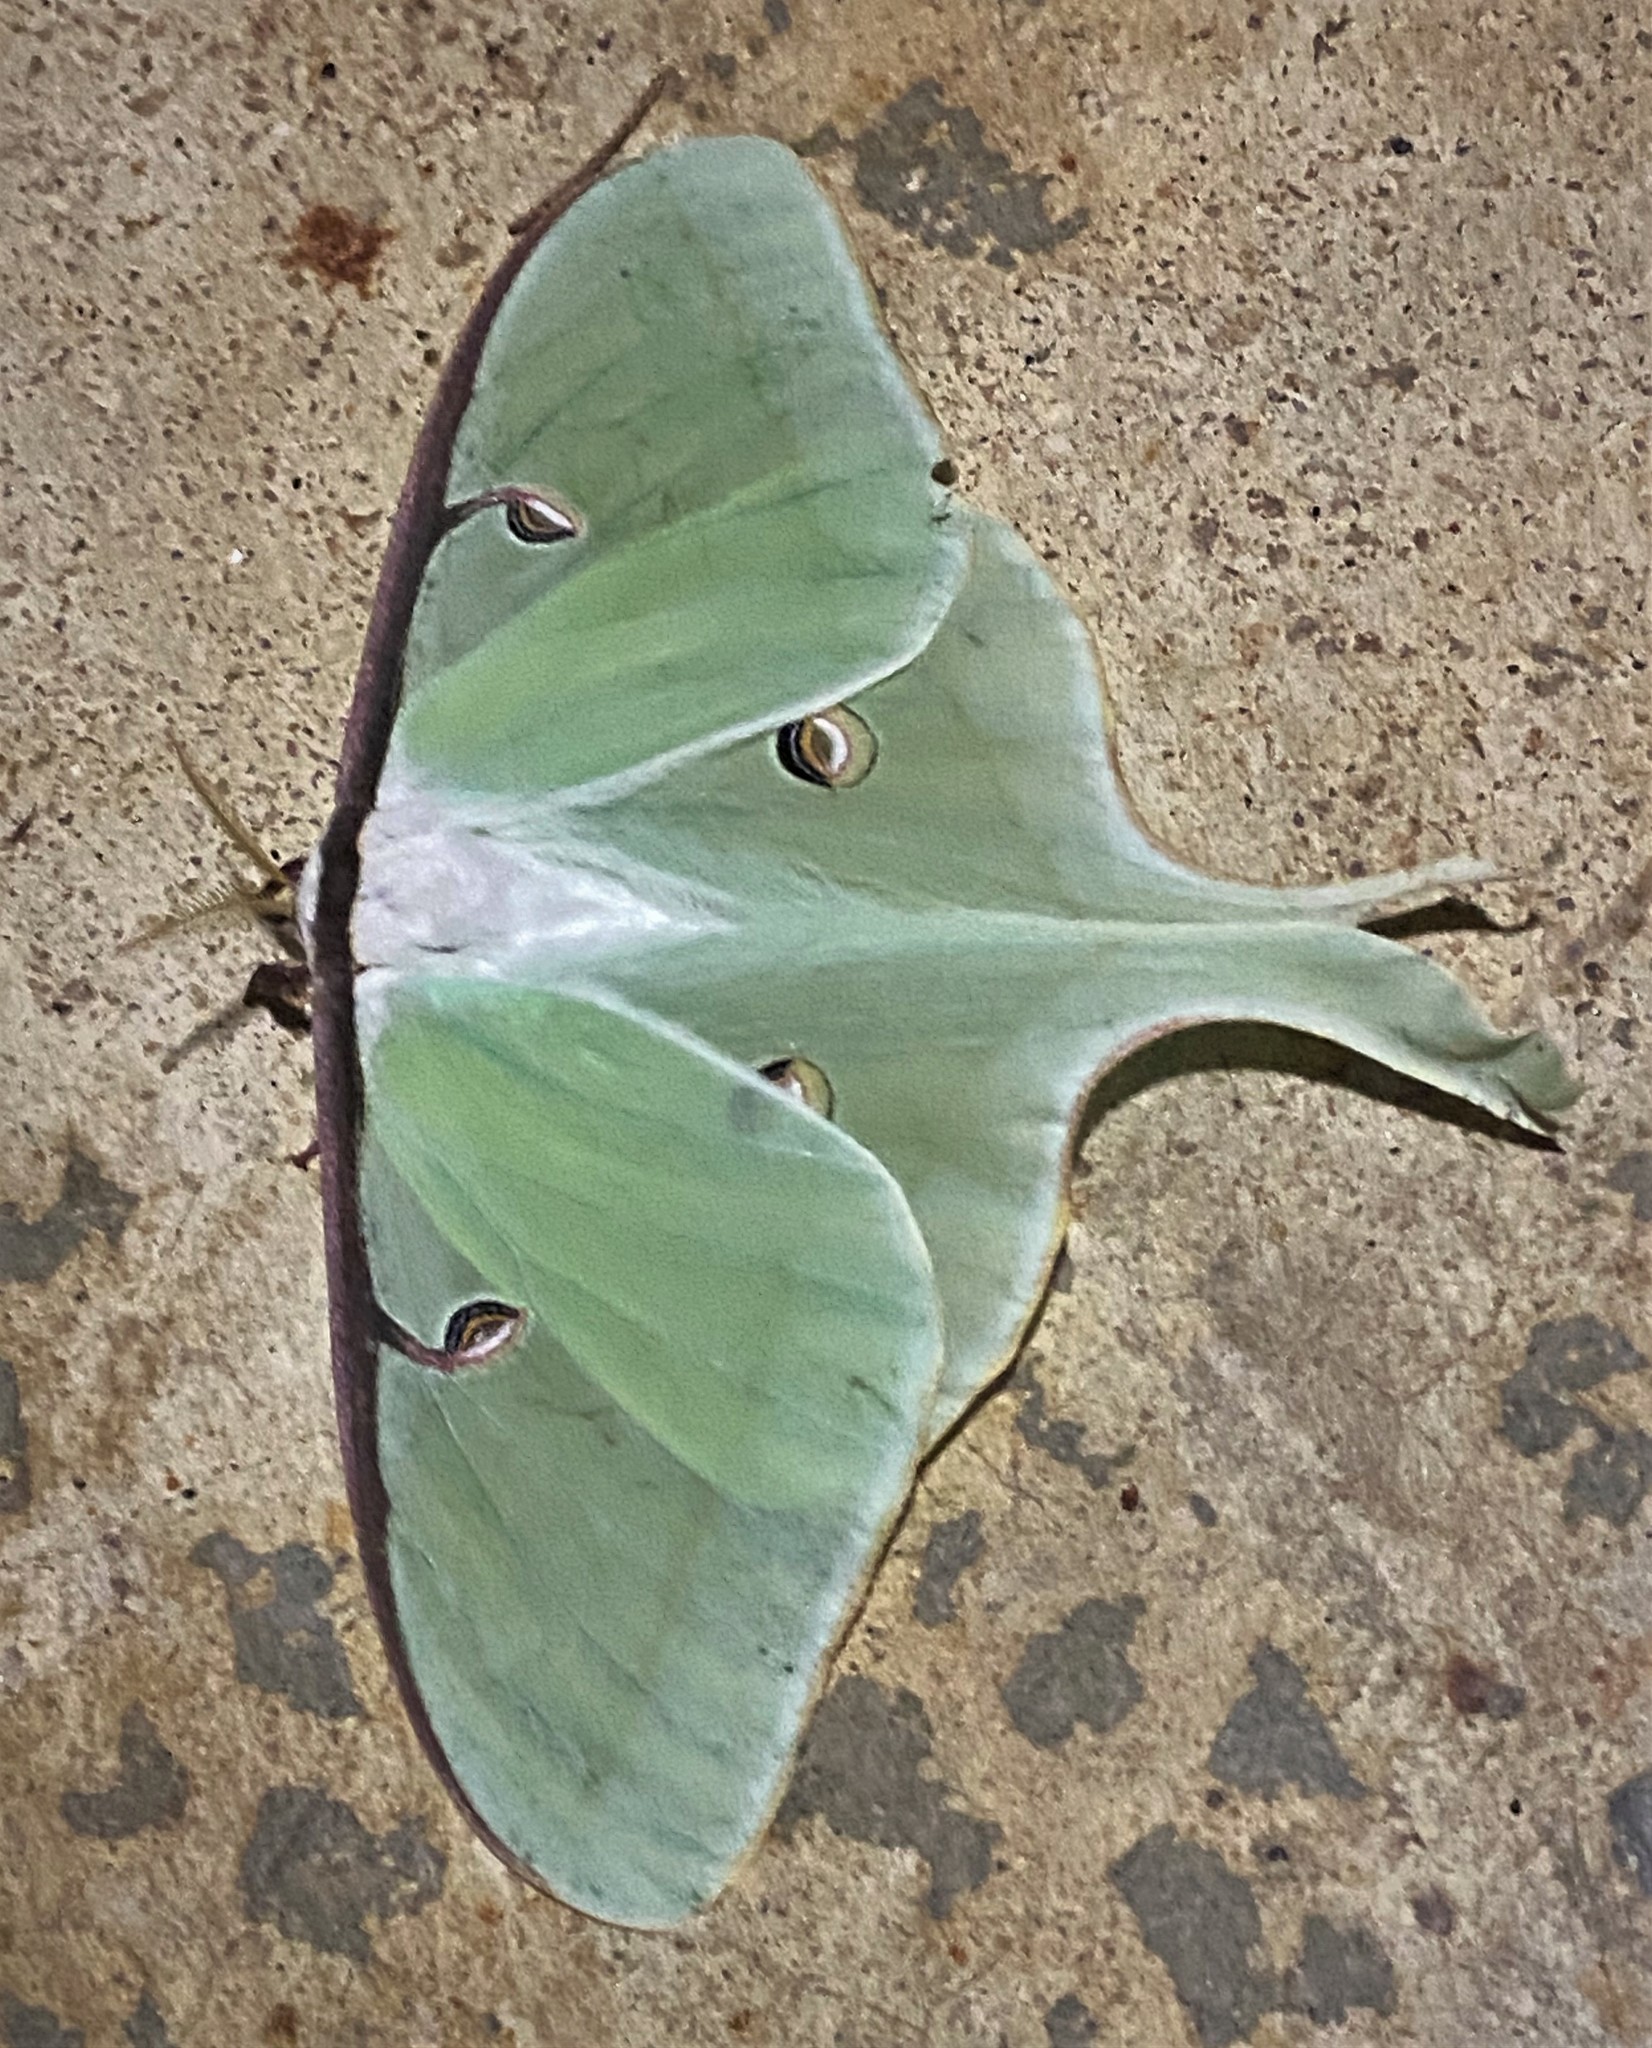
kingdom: Animalia
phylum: Arthropoda
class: Insecta
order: Lepidoptera
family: Saturniidae
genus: Actias
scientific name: Actias luna
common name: Luna moth
